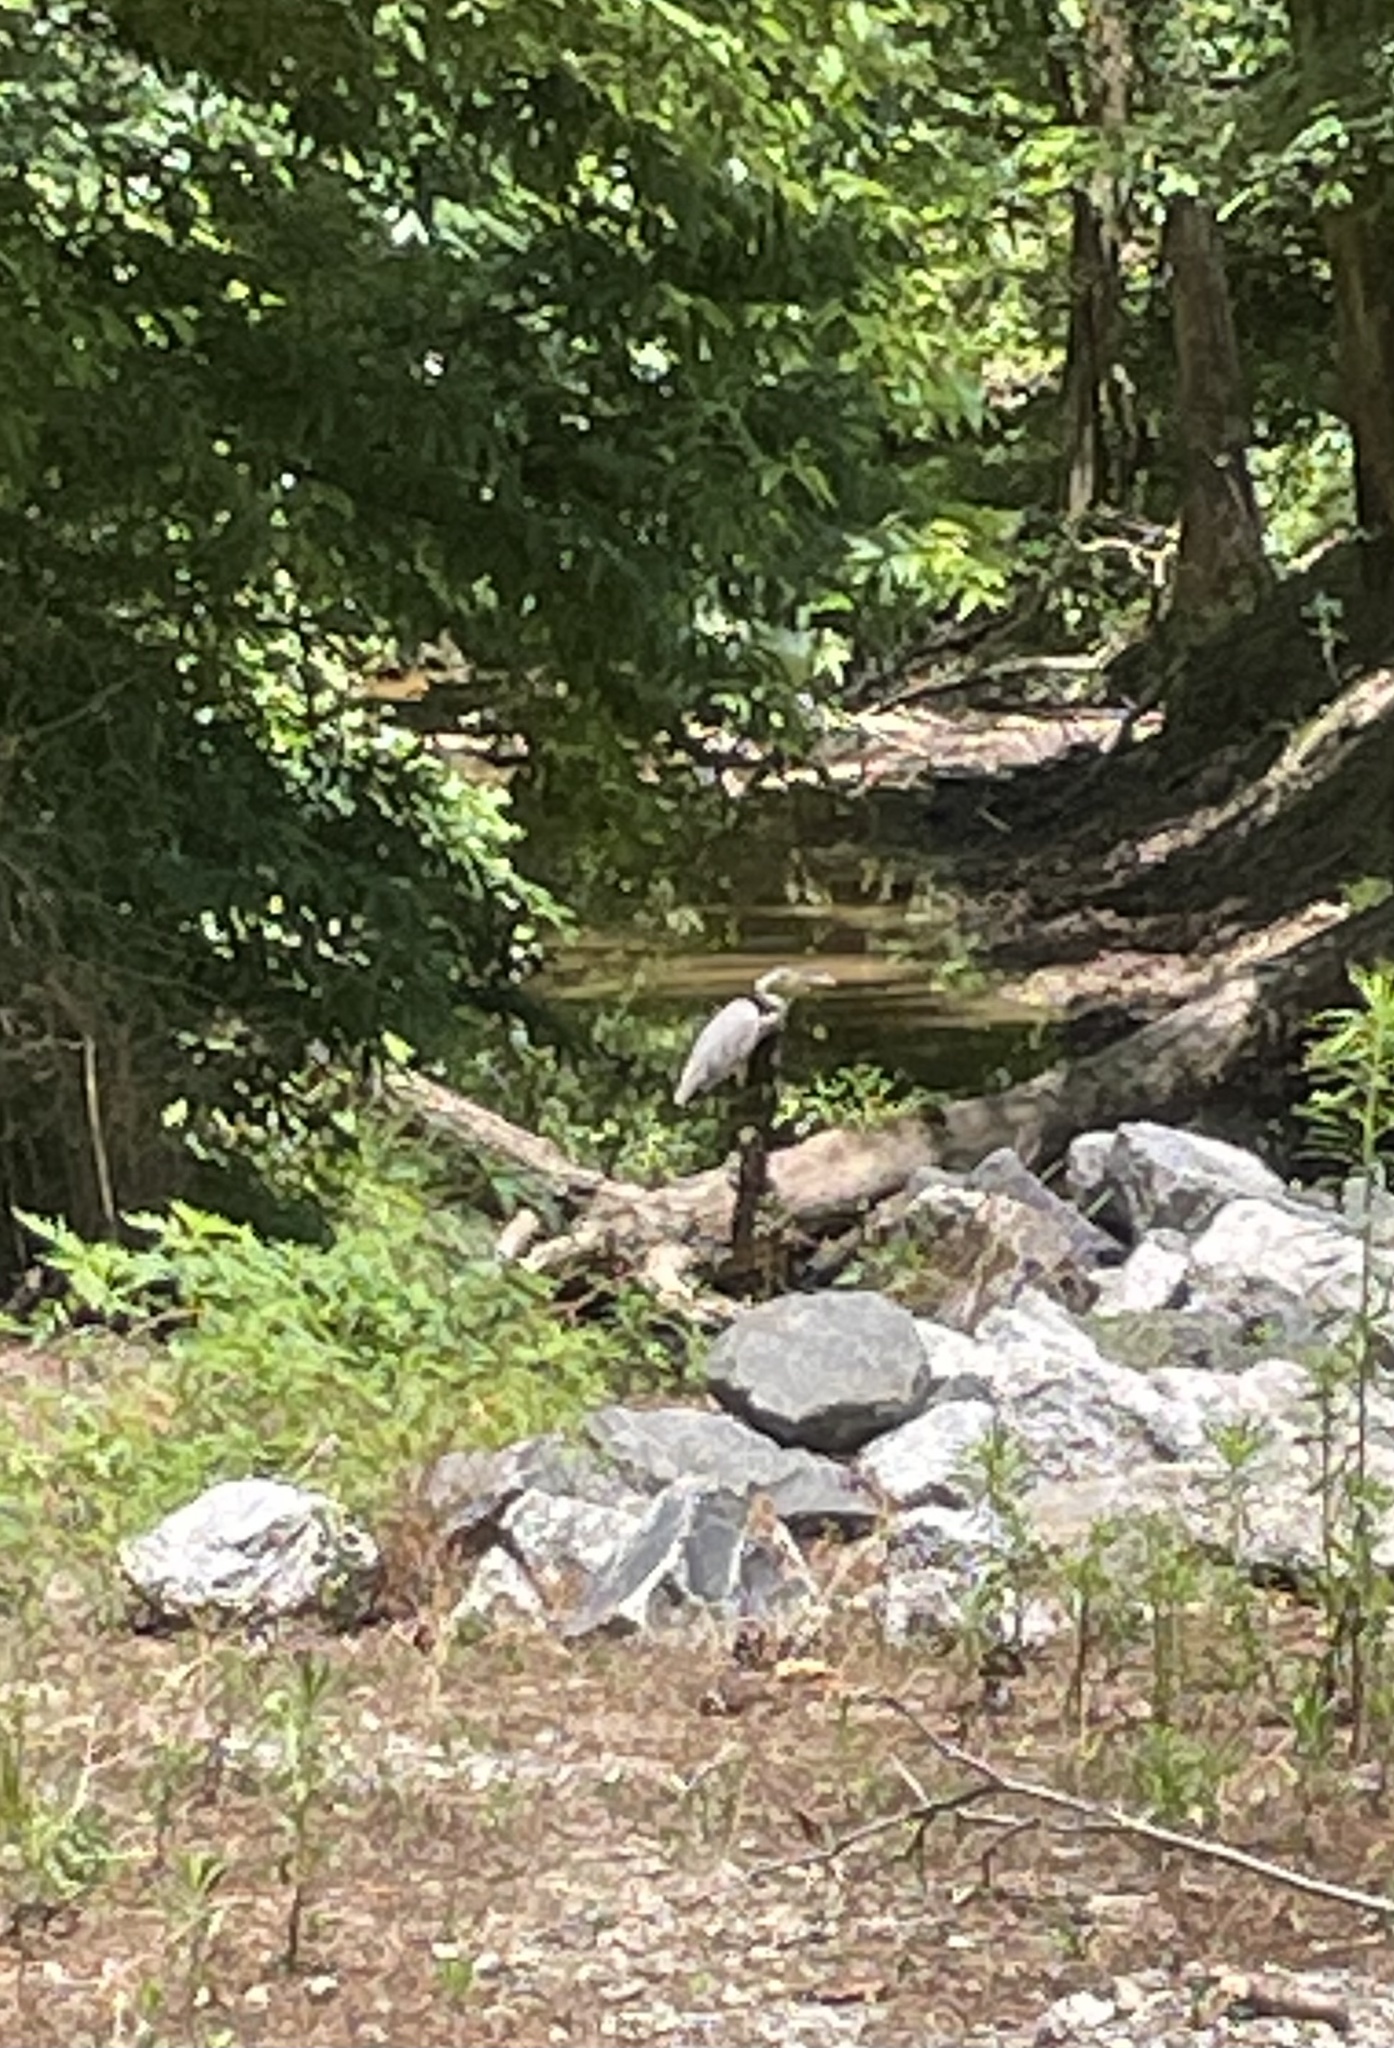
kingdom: Animalia
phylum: Chordata
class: Aves
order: Pelecaniformes
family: Ardeidae
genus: Ardea
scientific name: Ardea herodias
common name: Great blue heron
